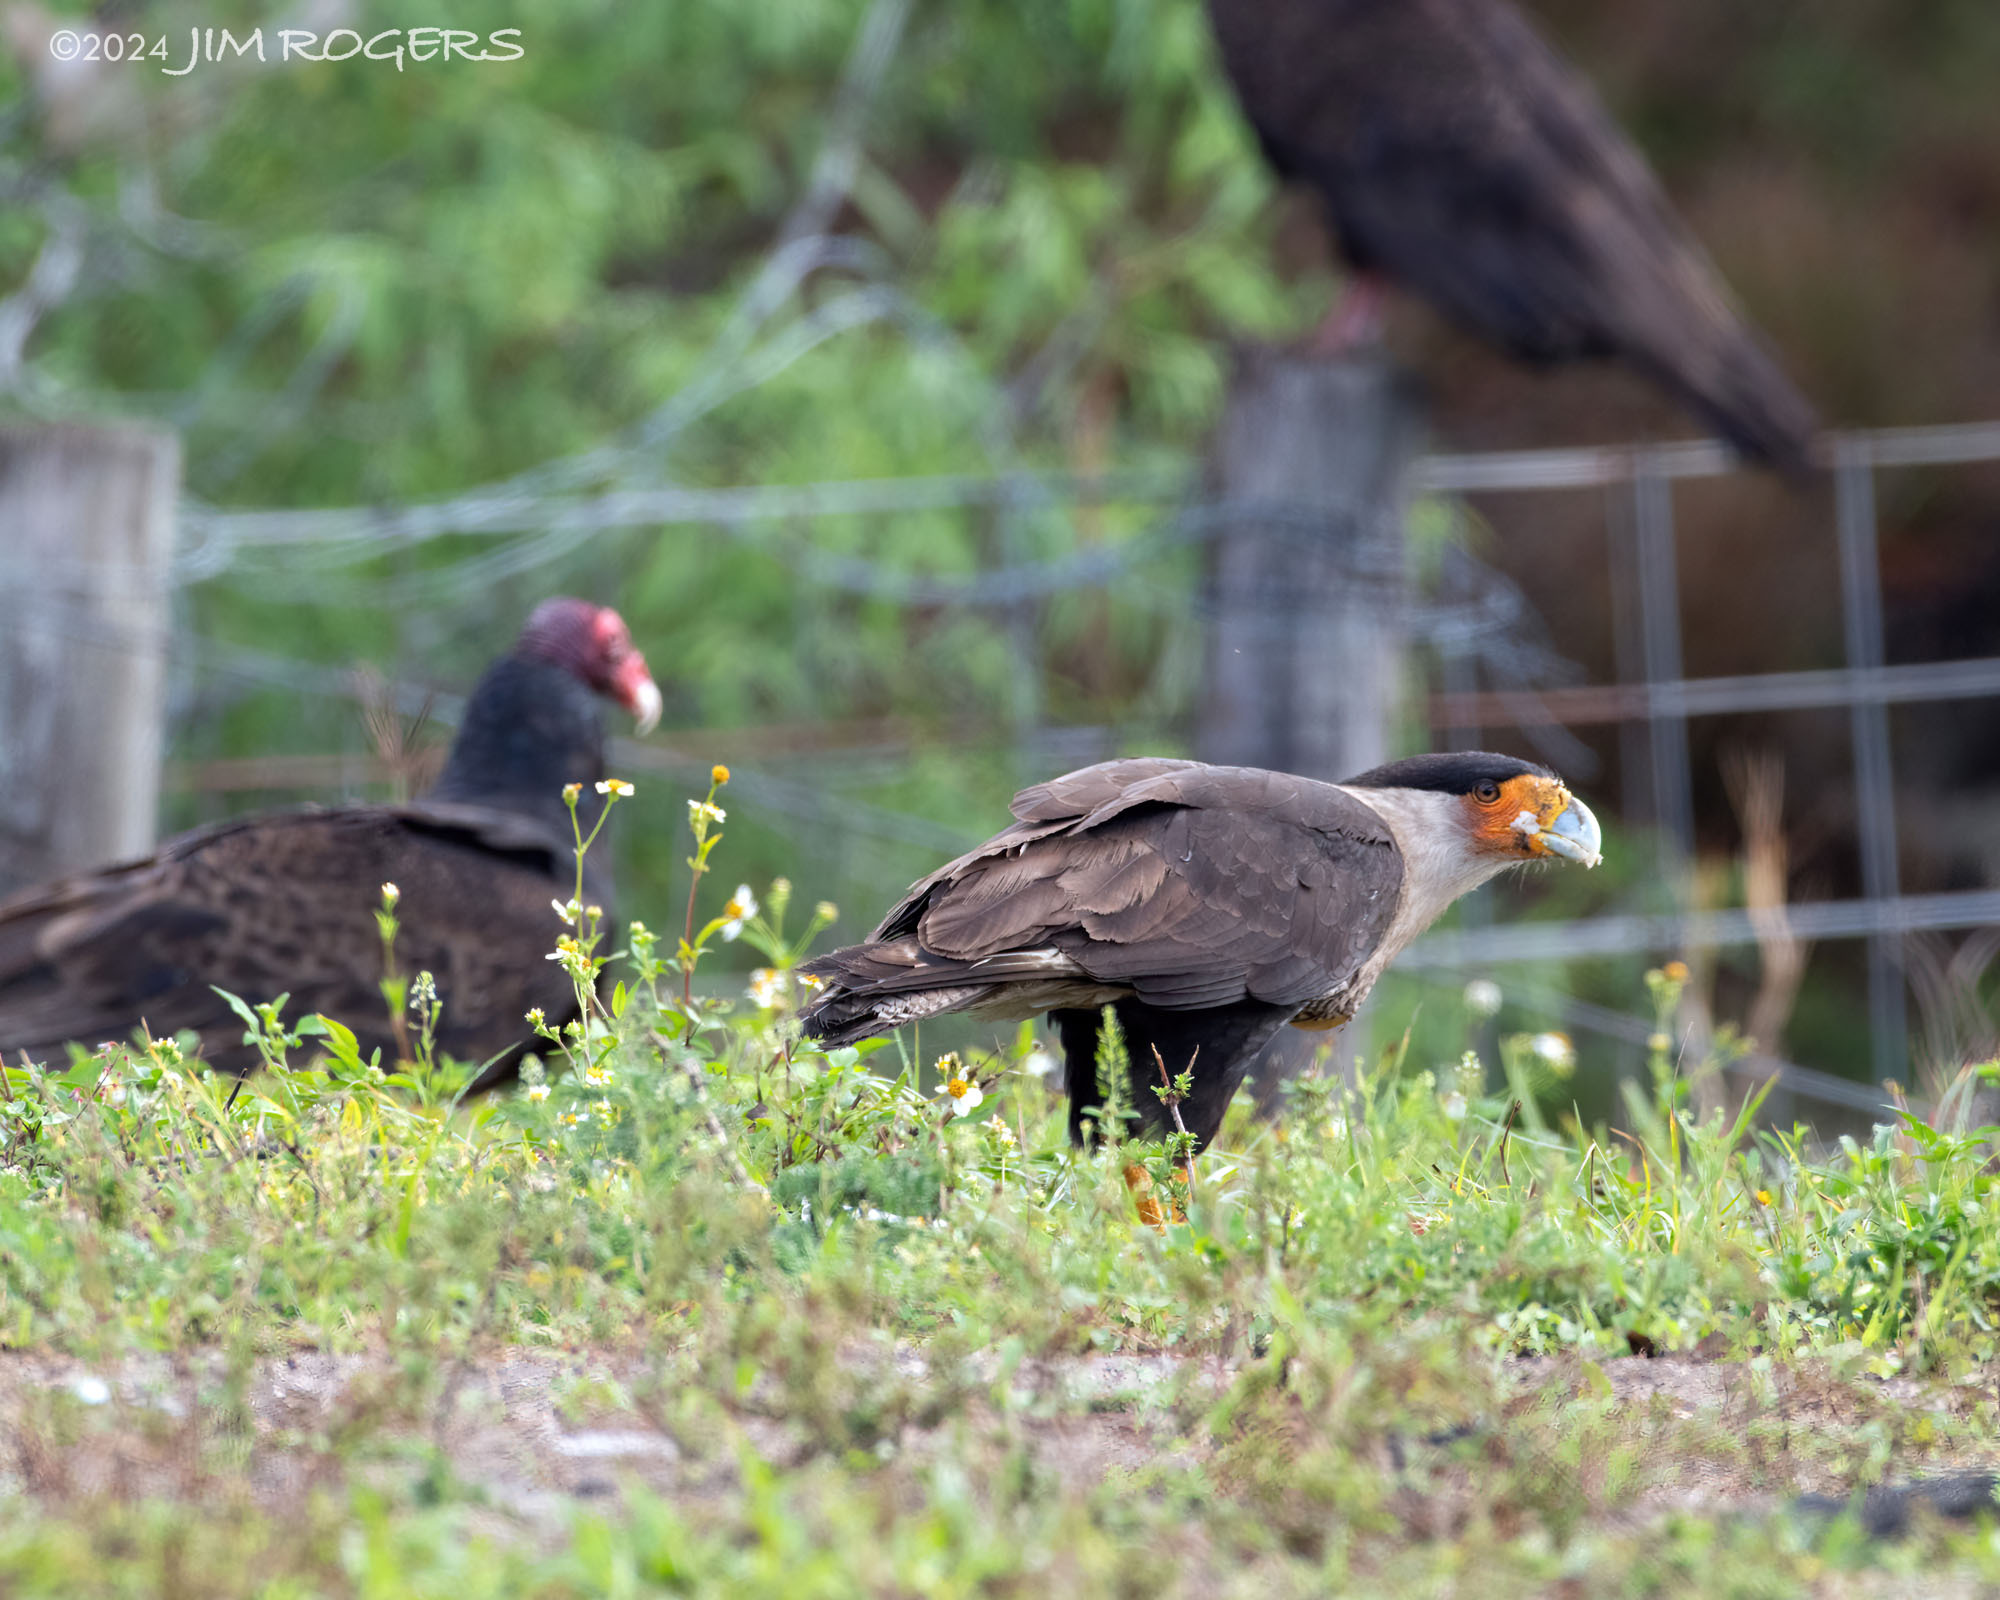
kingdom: Animalia
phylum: Chordata
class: Aves
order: Falconiformes
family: Falconidae
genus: Caracara
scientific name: Caracara plancus
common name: Southern caracara
